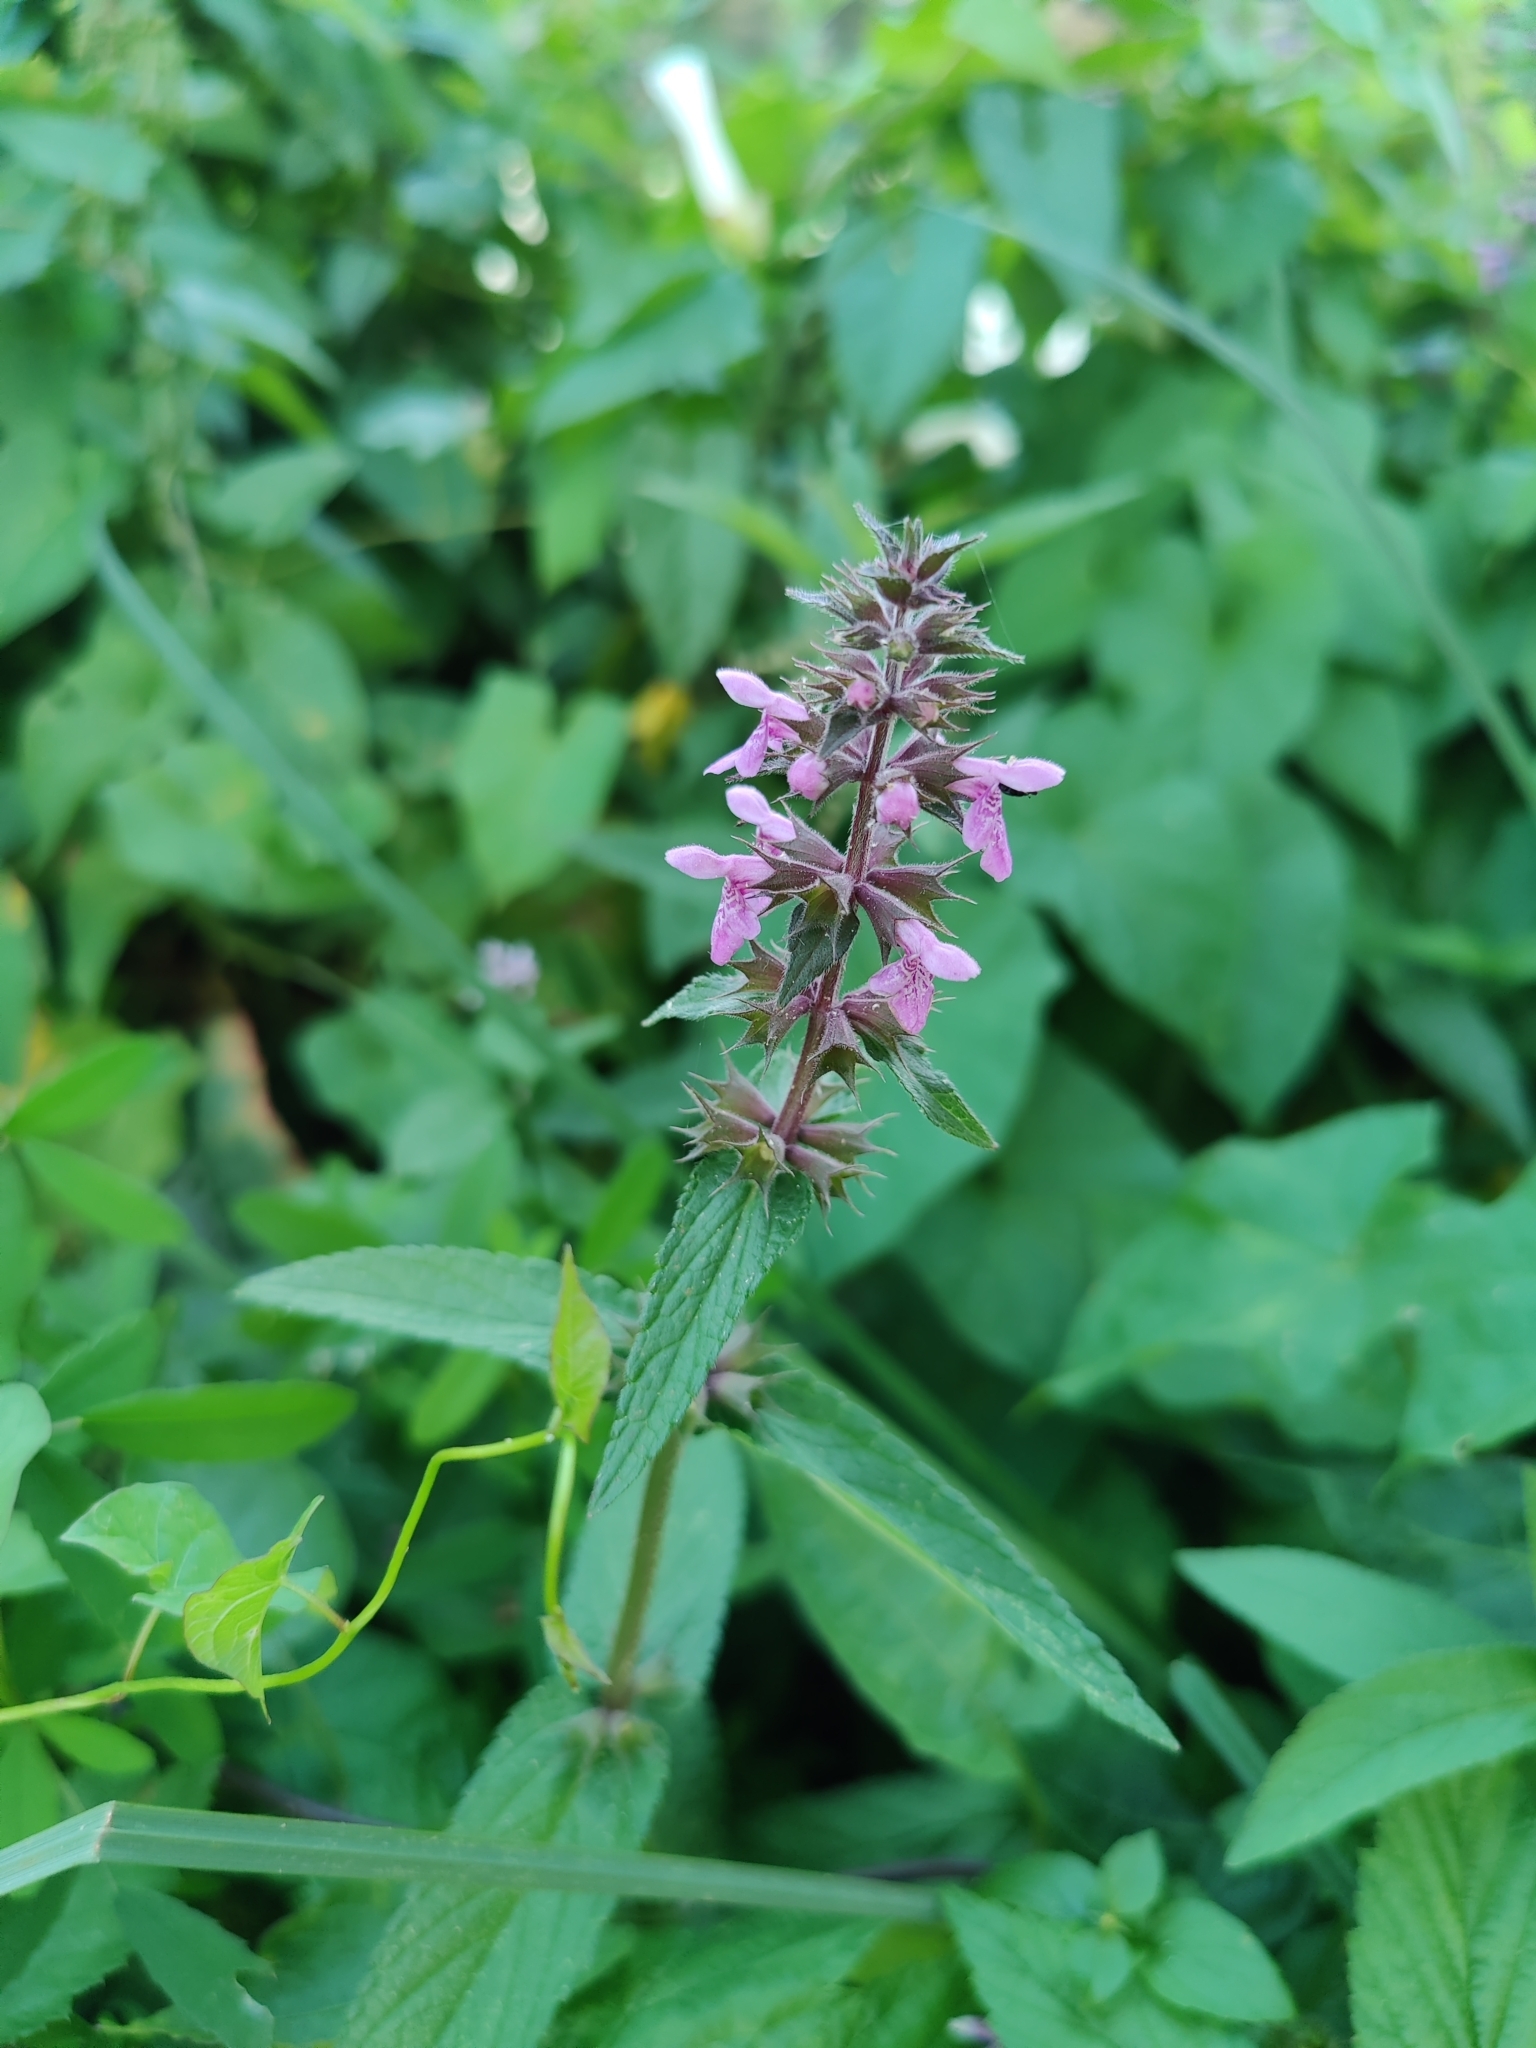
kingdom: Plantae
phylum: Tracheophyta
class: Magnoliopsida
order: Lamiales
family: Lamiaceae
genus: Stachys
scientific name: Stachys palustris
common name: Marsh woundwort
